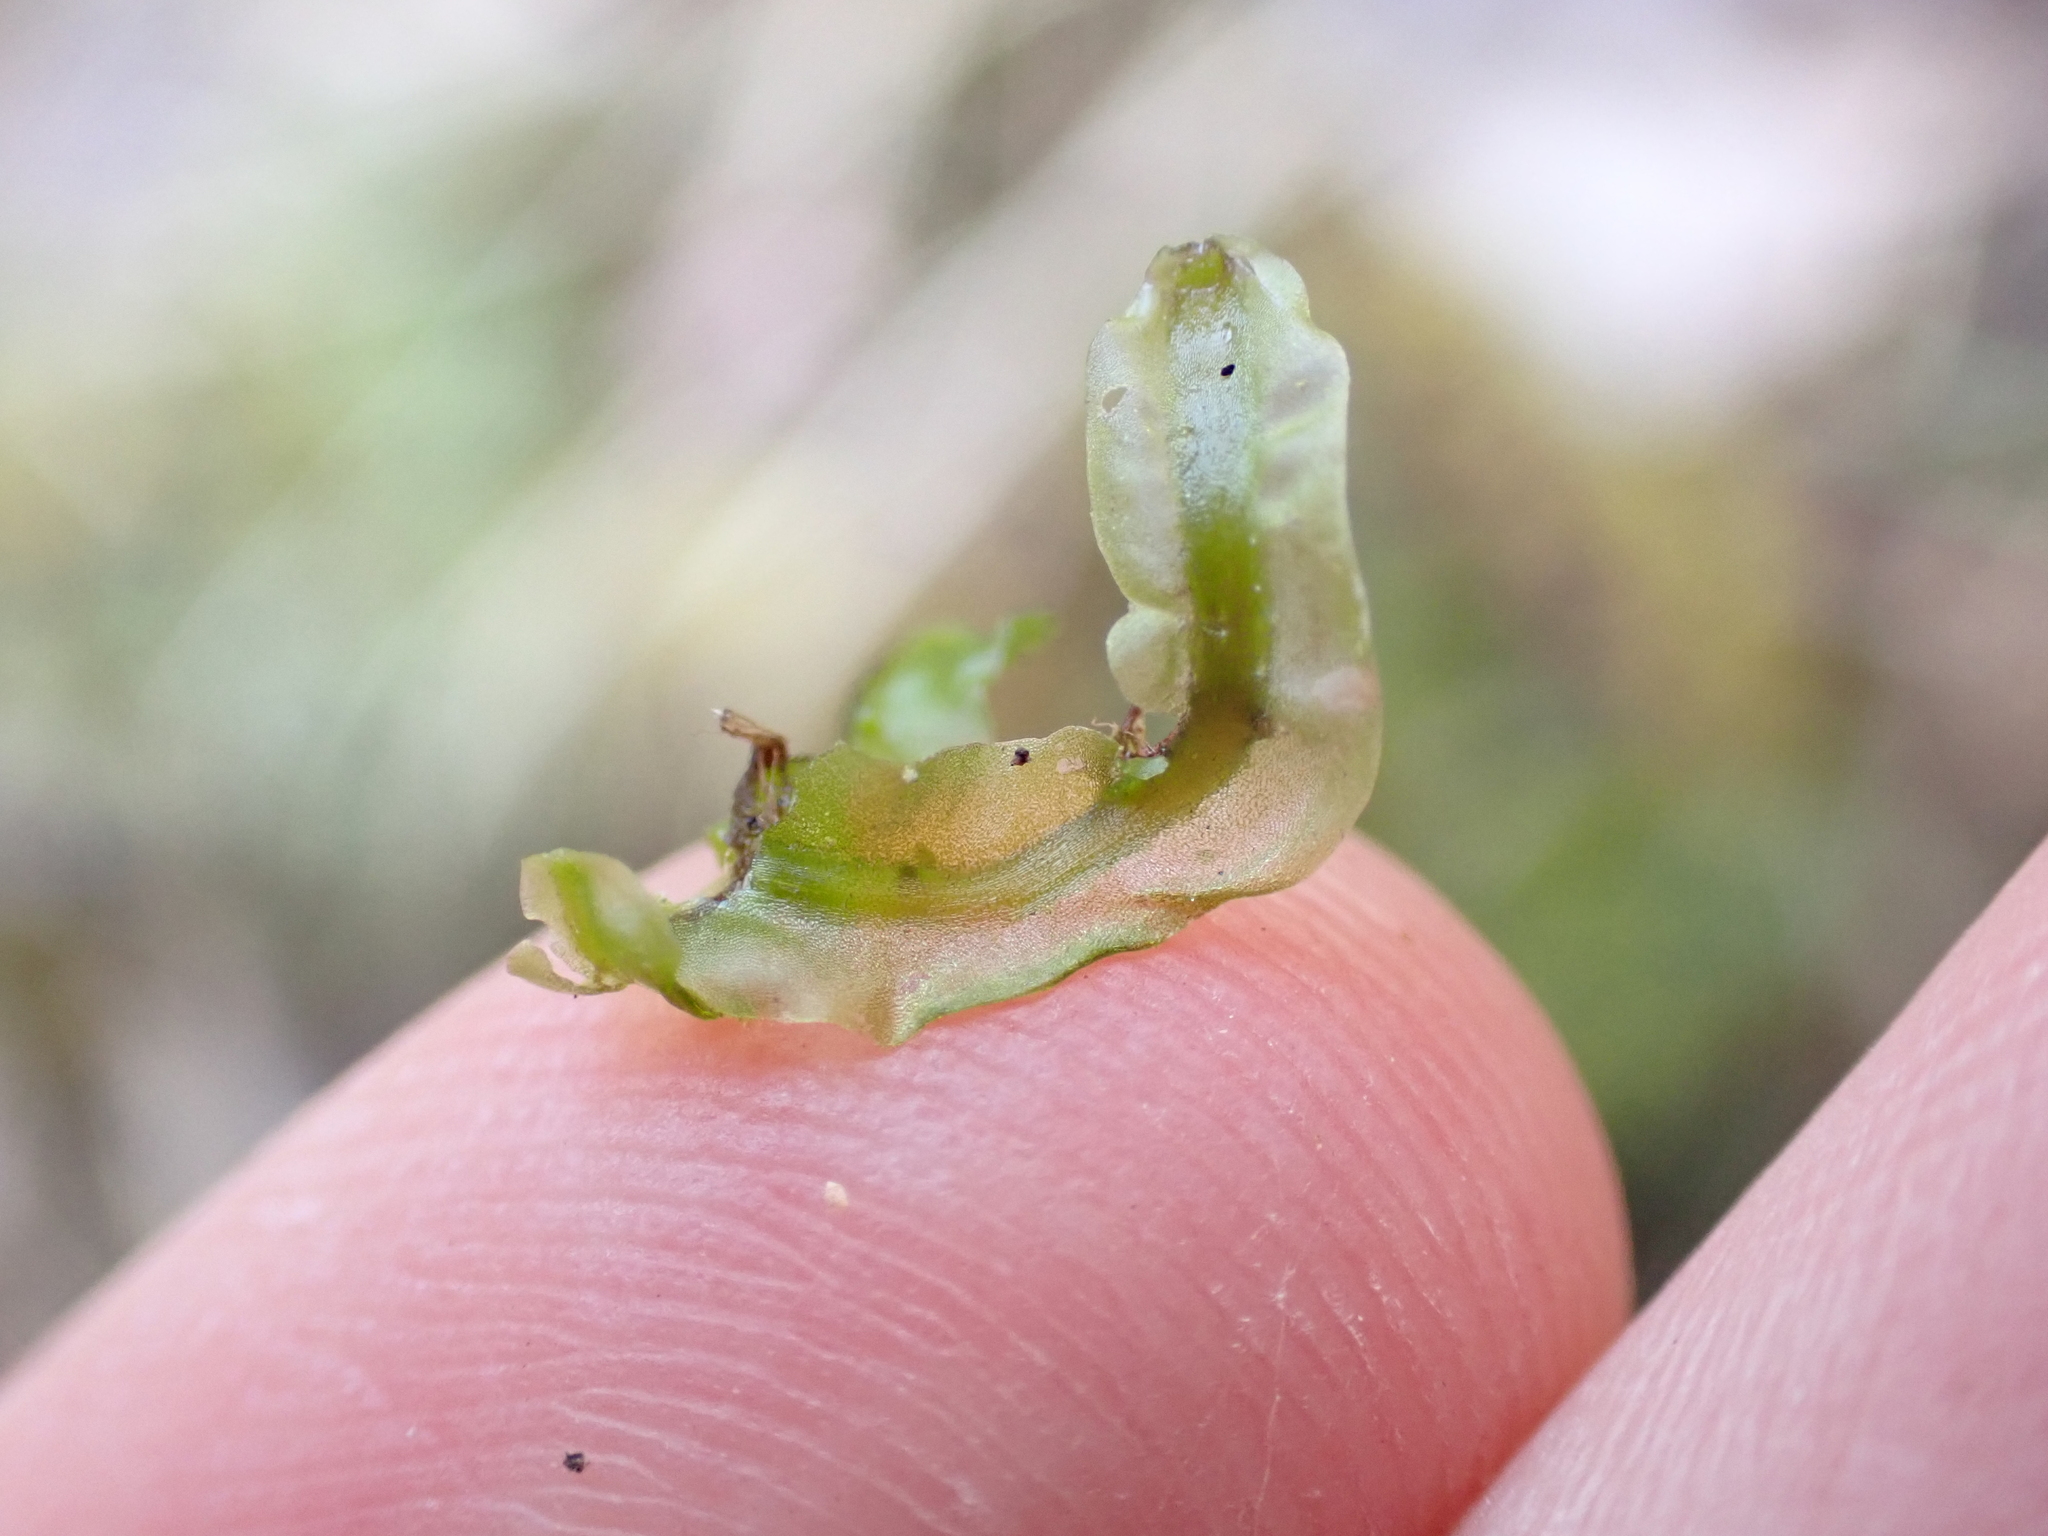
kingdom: Plantae
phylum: Marchantiophyta
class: Jungermanniopsida
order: Pallaviciniales
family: Pallaviciniaceae
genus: Pallavicinia
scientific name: Pallavicinia lyellii
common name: Veilwort
